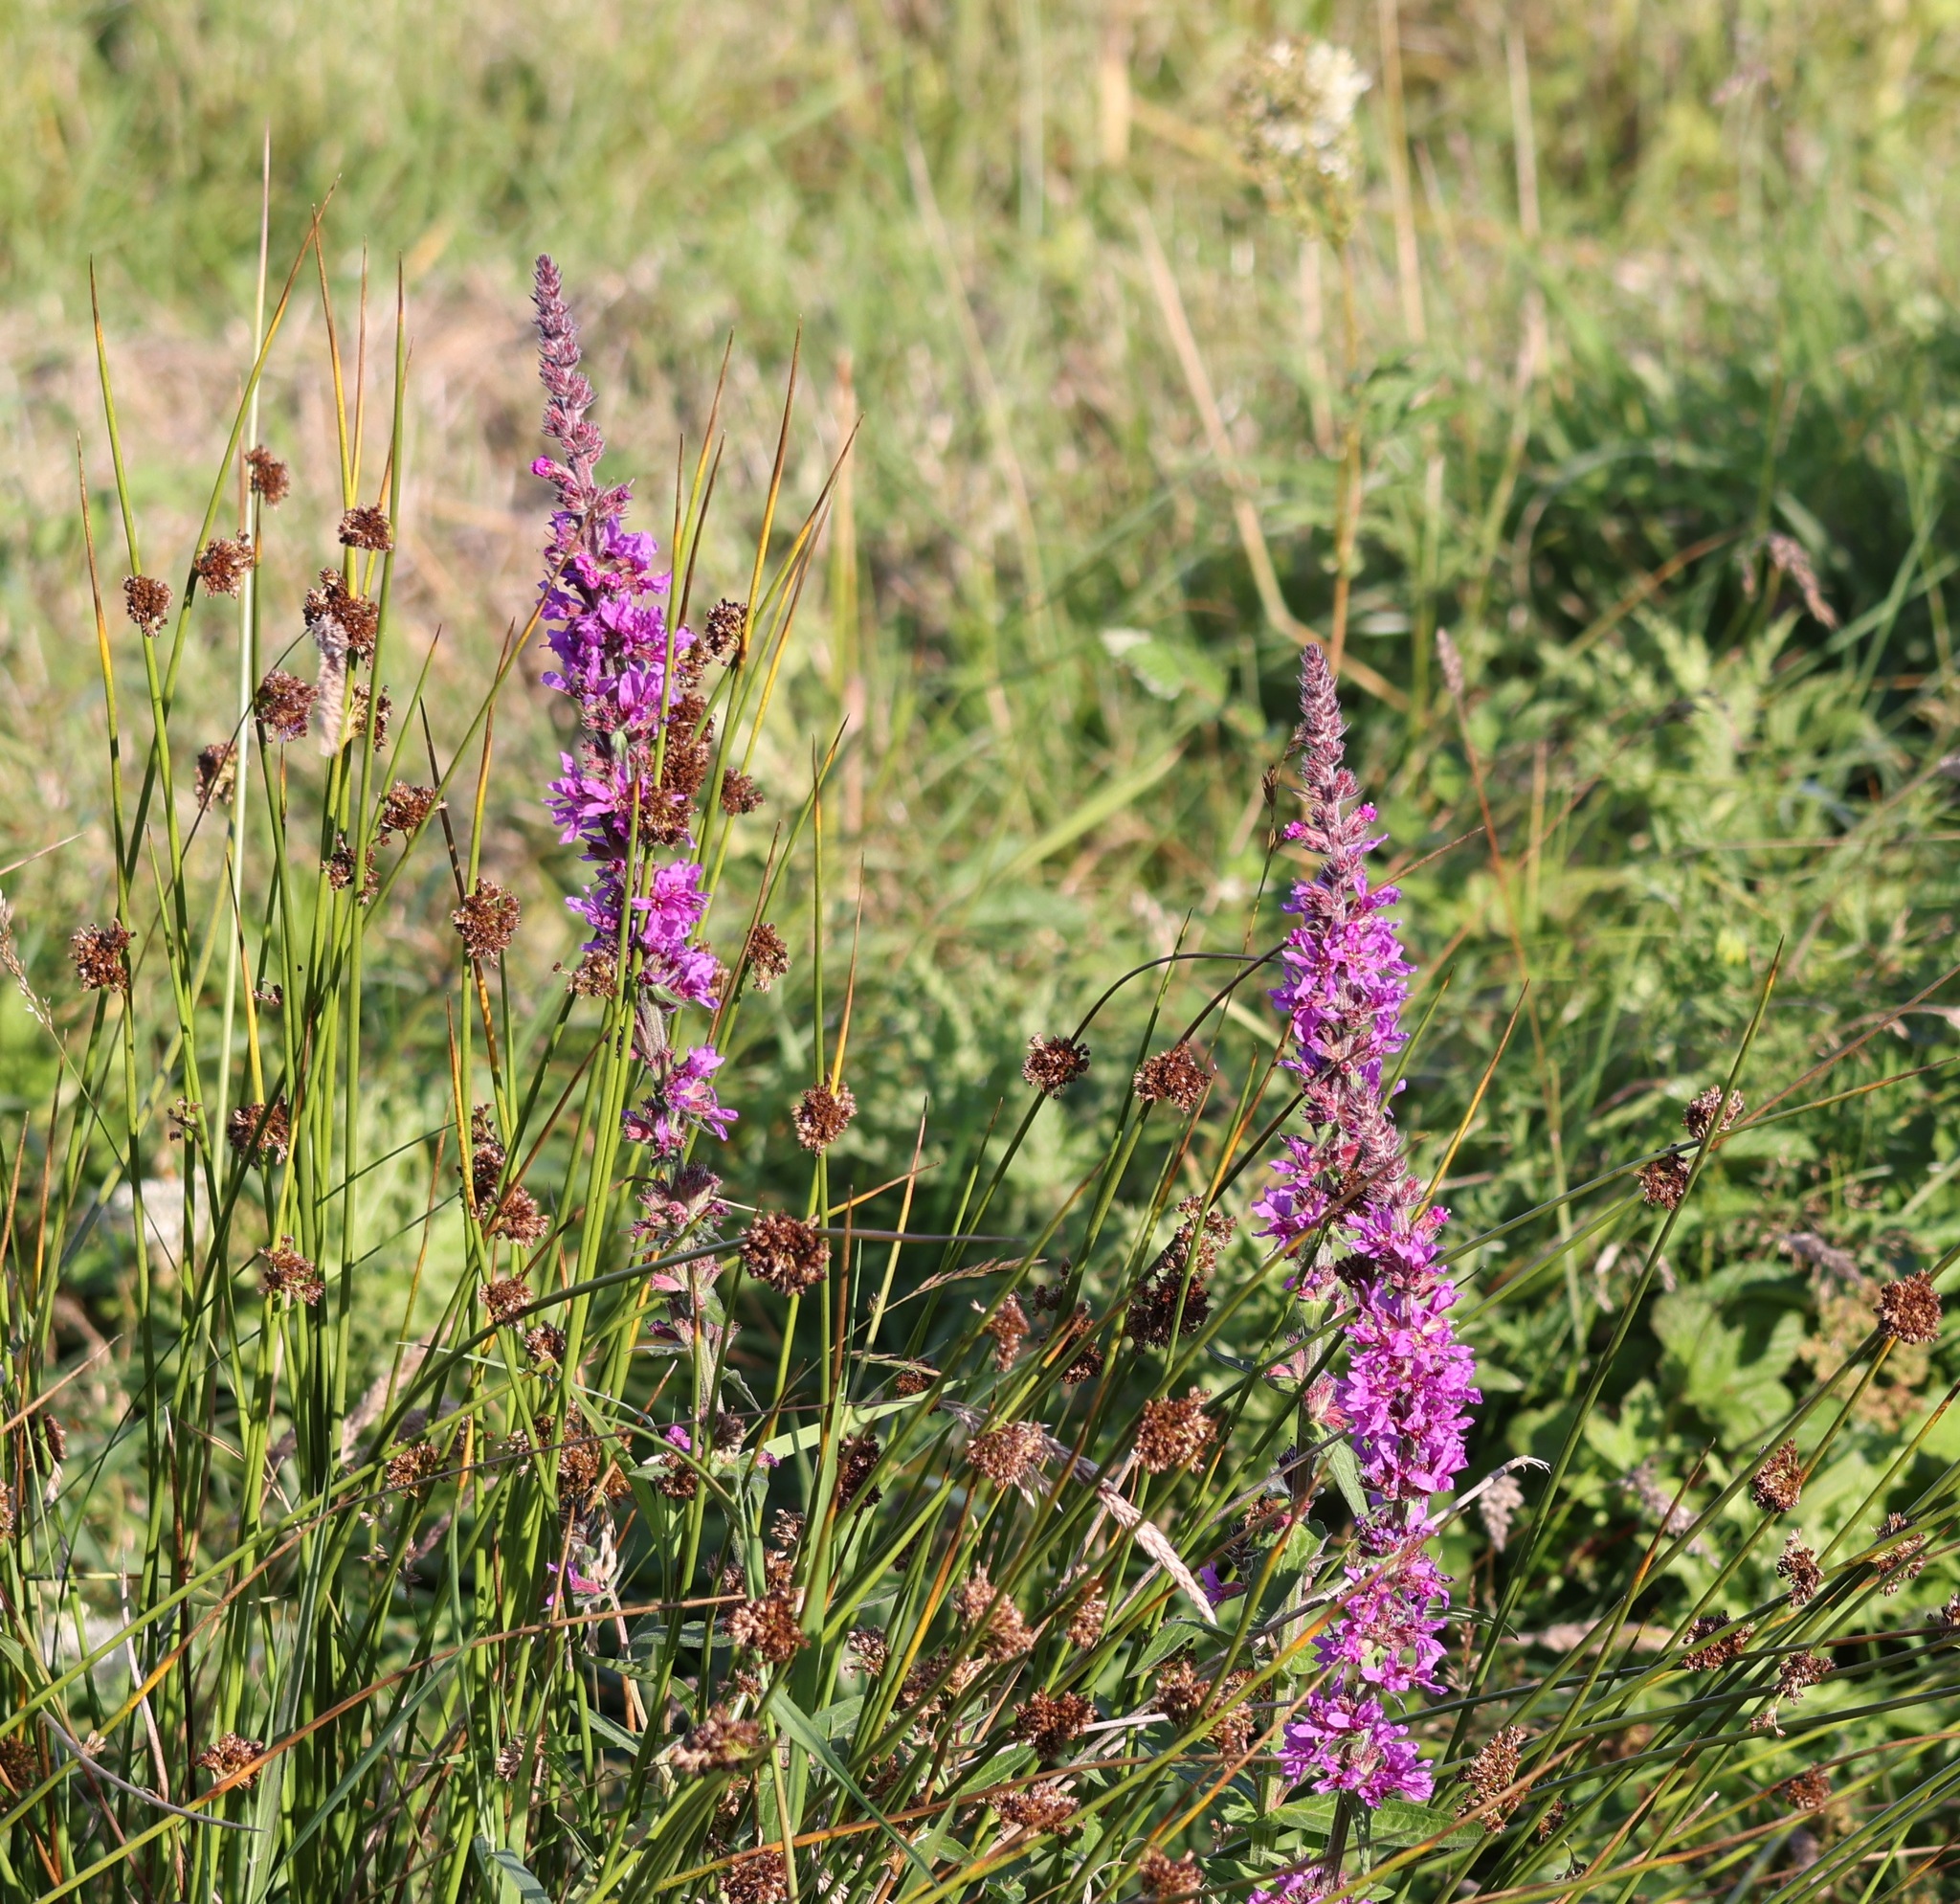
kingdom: Plantae
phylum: Tracheophyta
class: Magnoliopsida
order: Myrtales
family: Lythraceae
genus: Lythrum
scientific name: Lythrum salicaria
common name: Purple loosestrife
